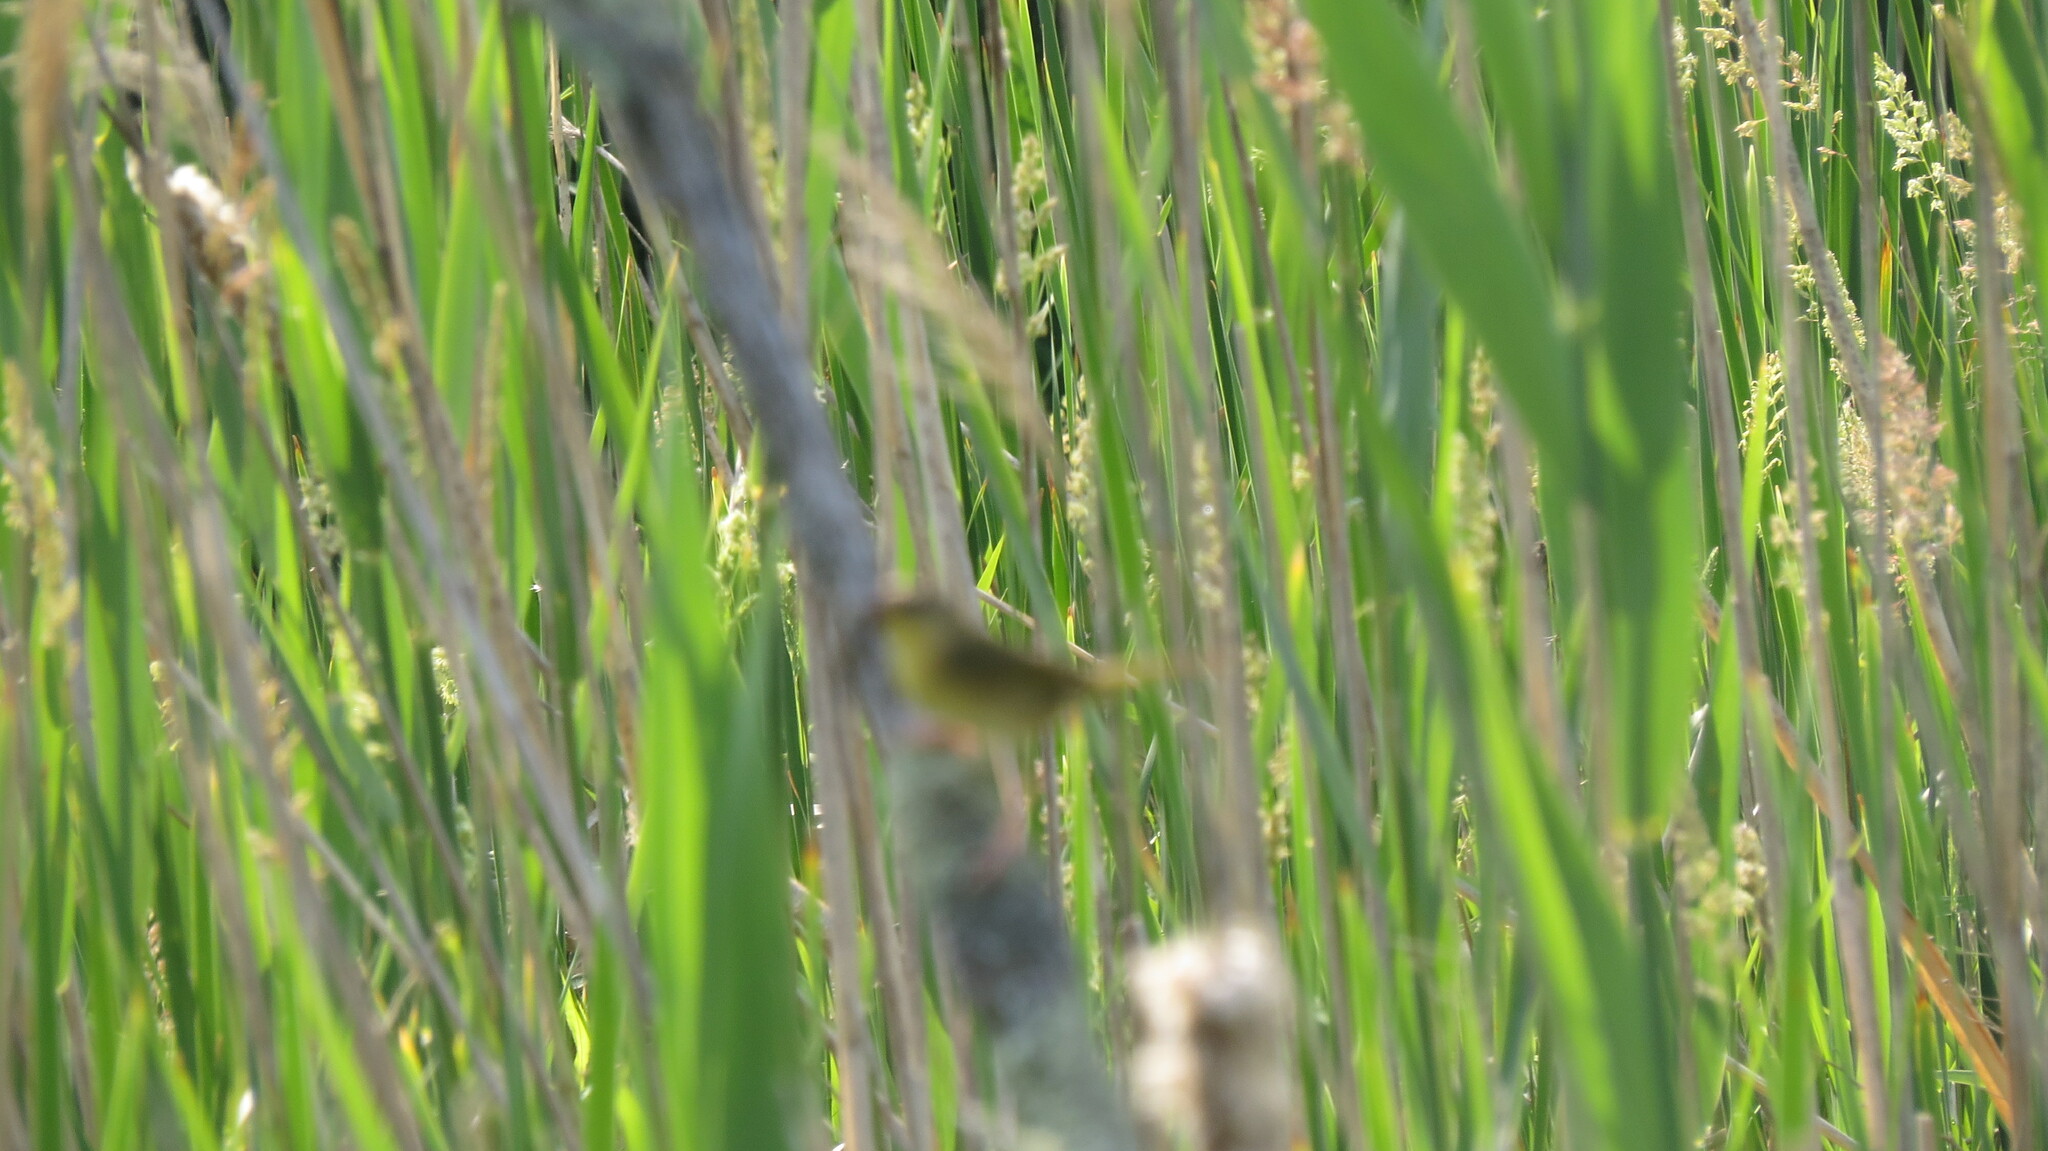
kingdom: Animalia
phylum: Chordata
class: Aves
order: Passeriformes
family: Parulidae
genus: Geothlypis
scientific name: Geothlypis trichas
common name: Common yellowthroat
